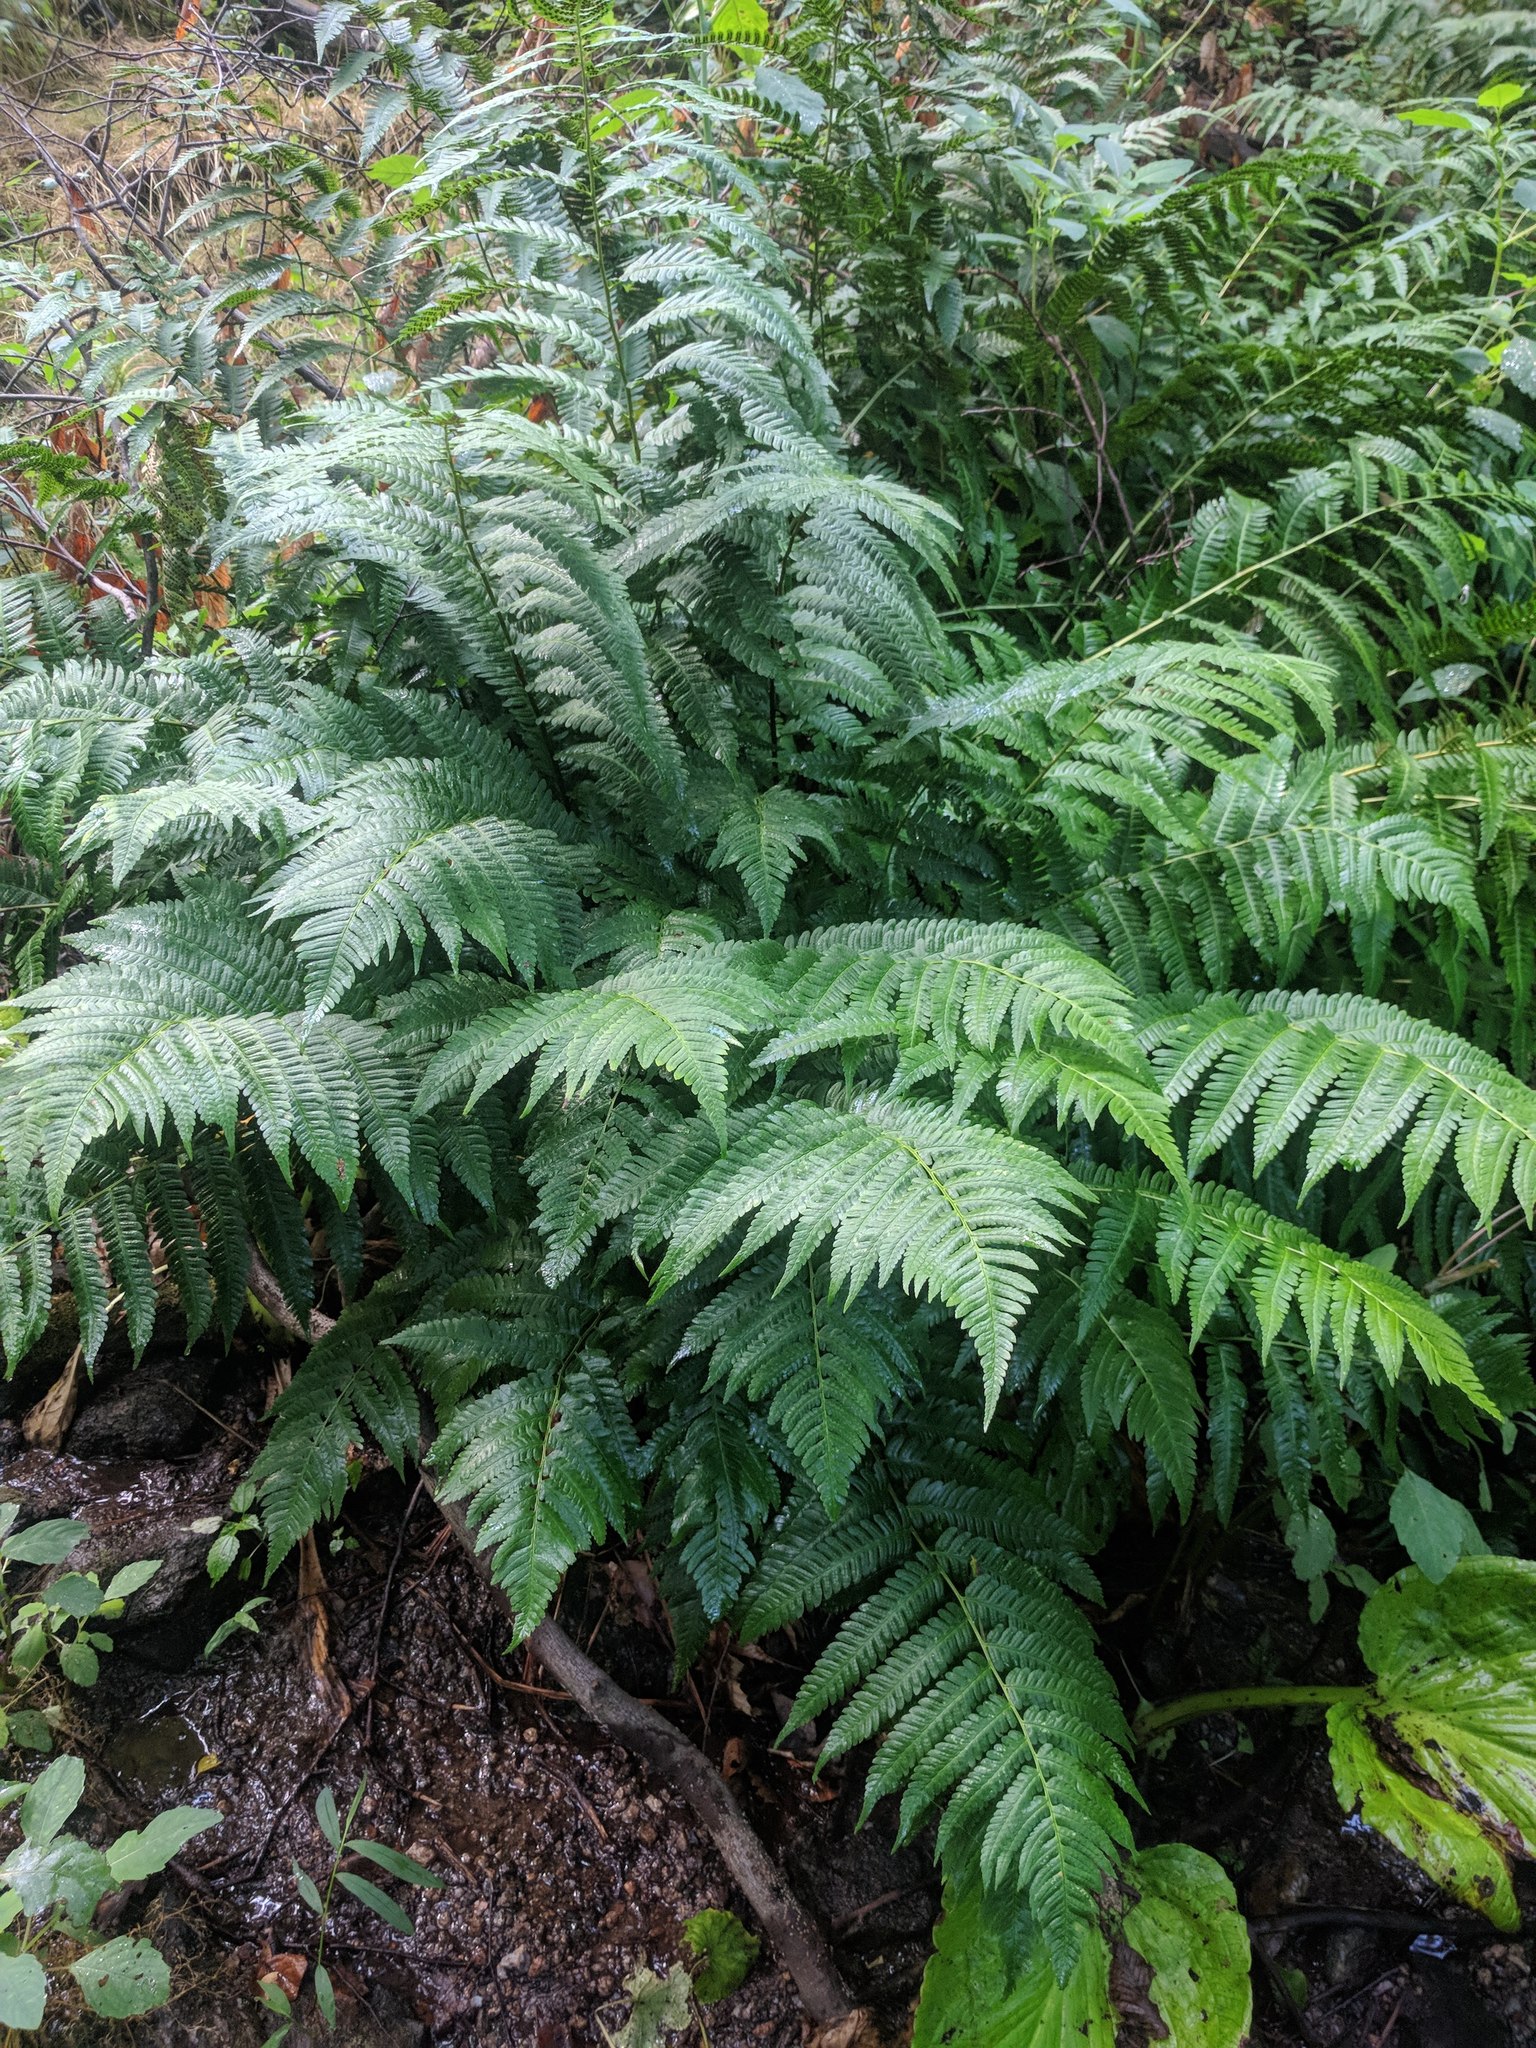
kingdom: Plantae
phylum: Tracheophyta
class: Polypodiopsida
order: Polypodiales
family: Dryopteridaceae
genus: Dryopteris
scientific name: Dryopteris goldieana
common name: Goldie's fern
